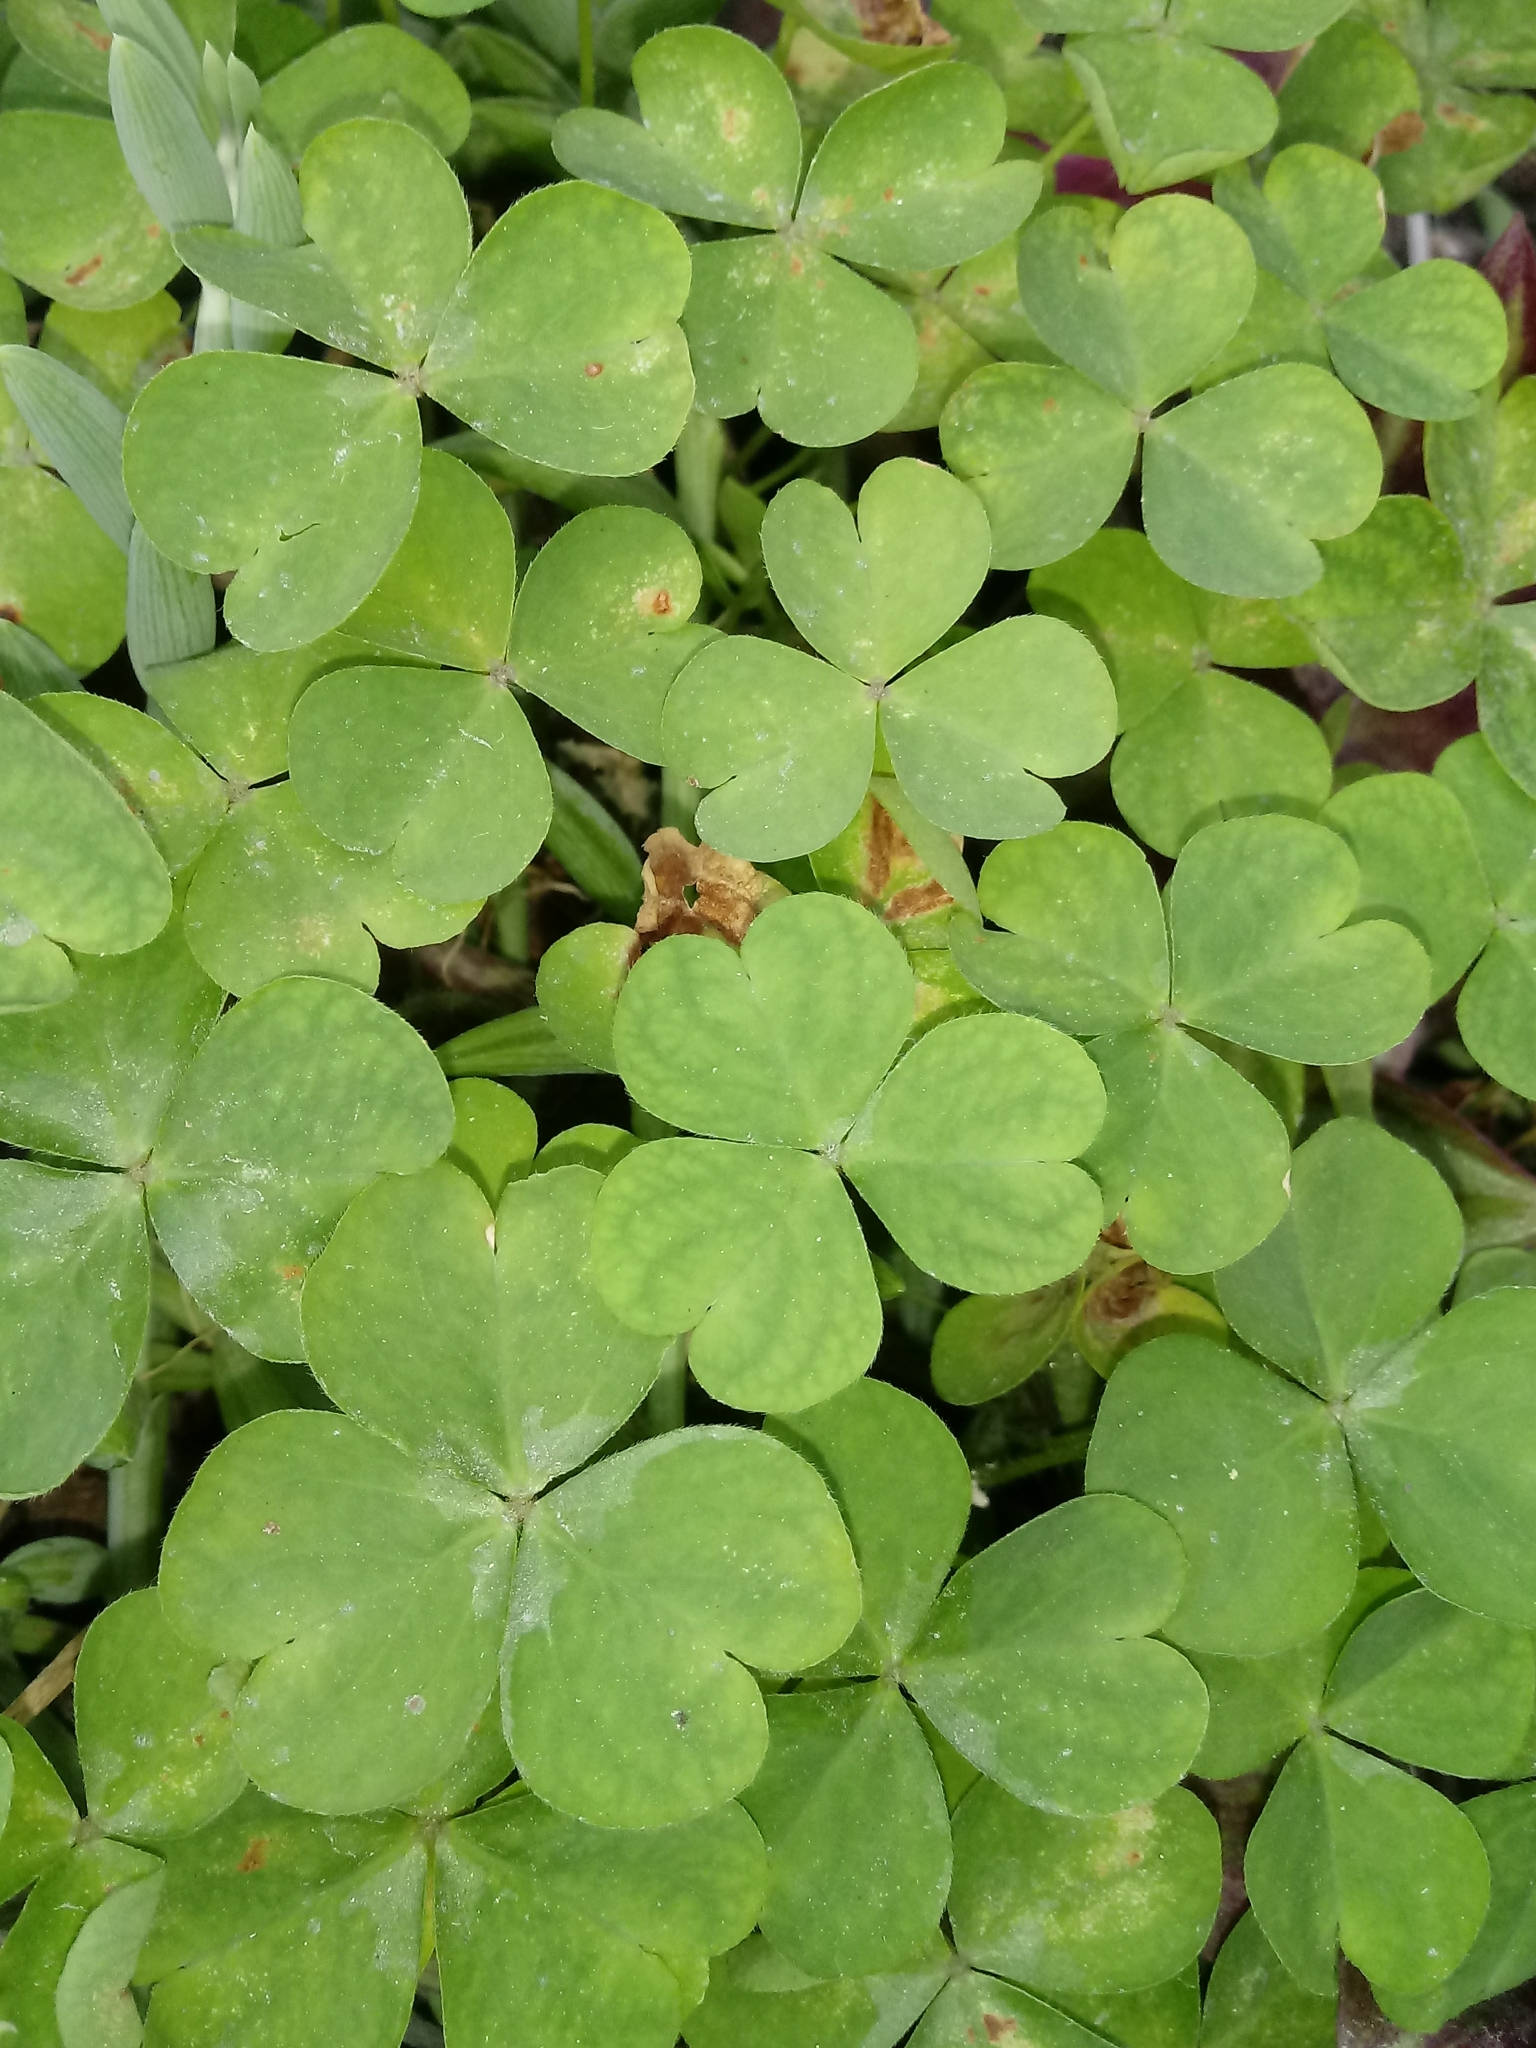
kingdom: Plantae
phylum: Tracheophyta
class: Magnoliopsida
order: Oxalidales
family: Oxalidaceae
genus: Oxalis
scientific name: Oxalis corniculata
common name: Procumbent yellow-sorrel
